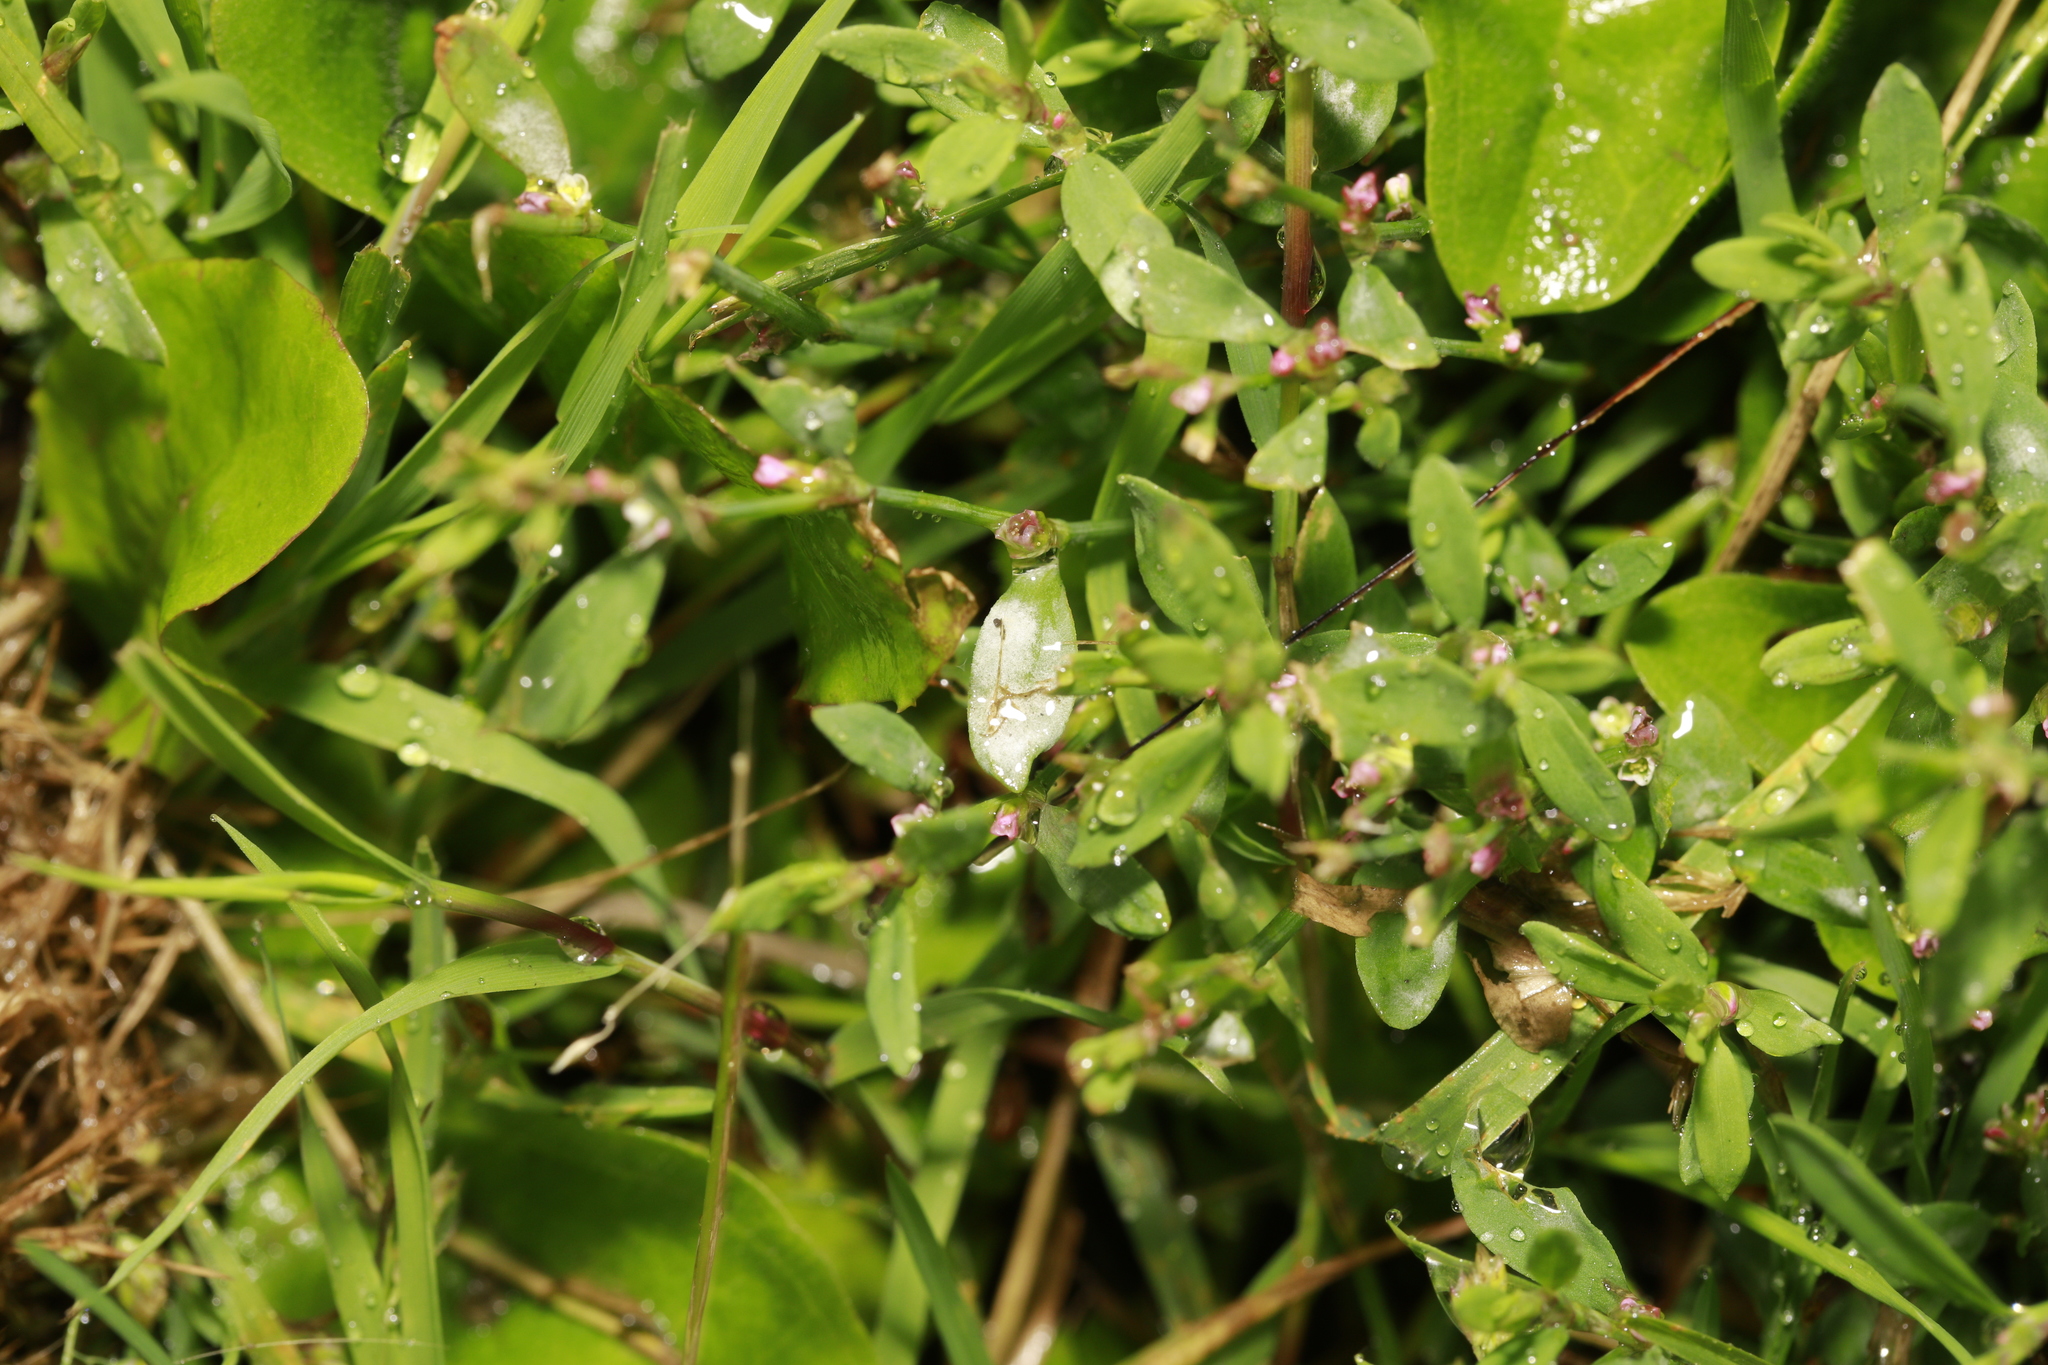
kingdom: Plantae
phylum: Tracheophyta
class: Magnoliopsida
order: Caryophyllales
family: Polygonaceae
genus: Polygonum
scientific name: Polygonum aviculare
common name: Prostrate knotweed
